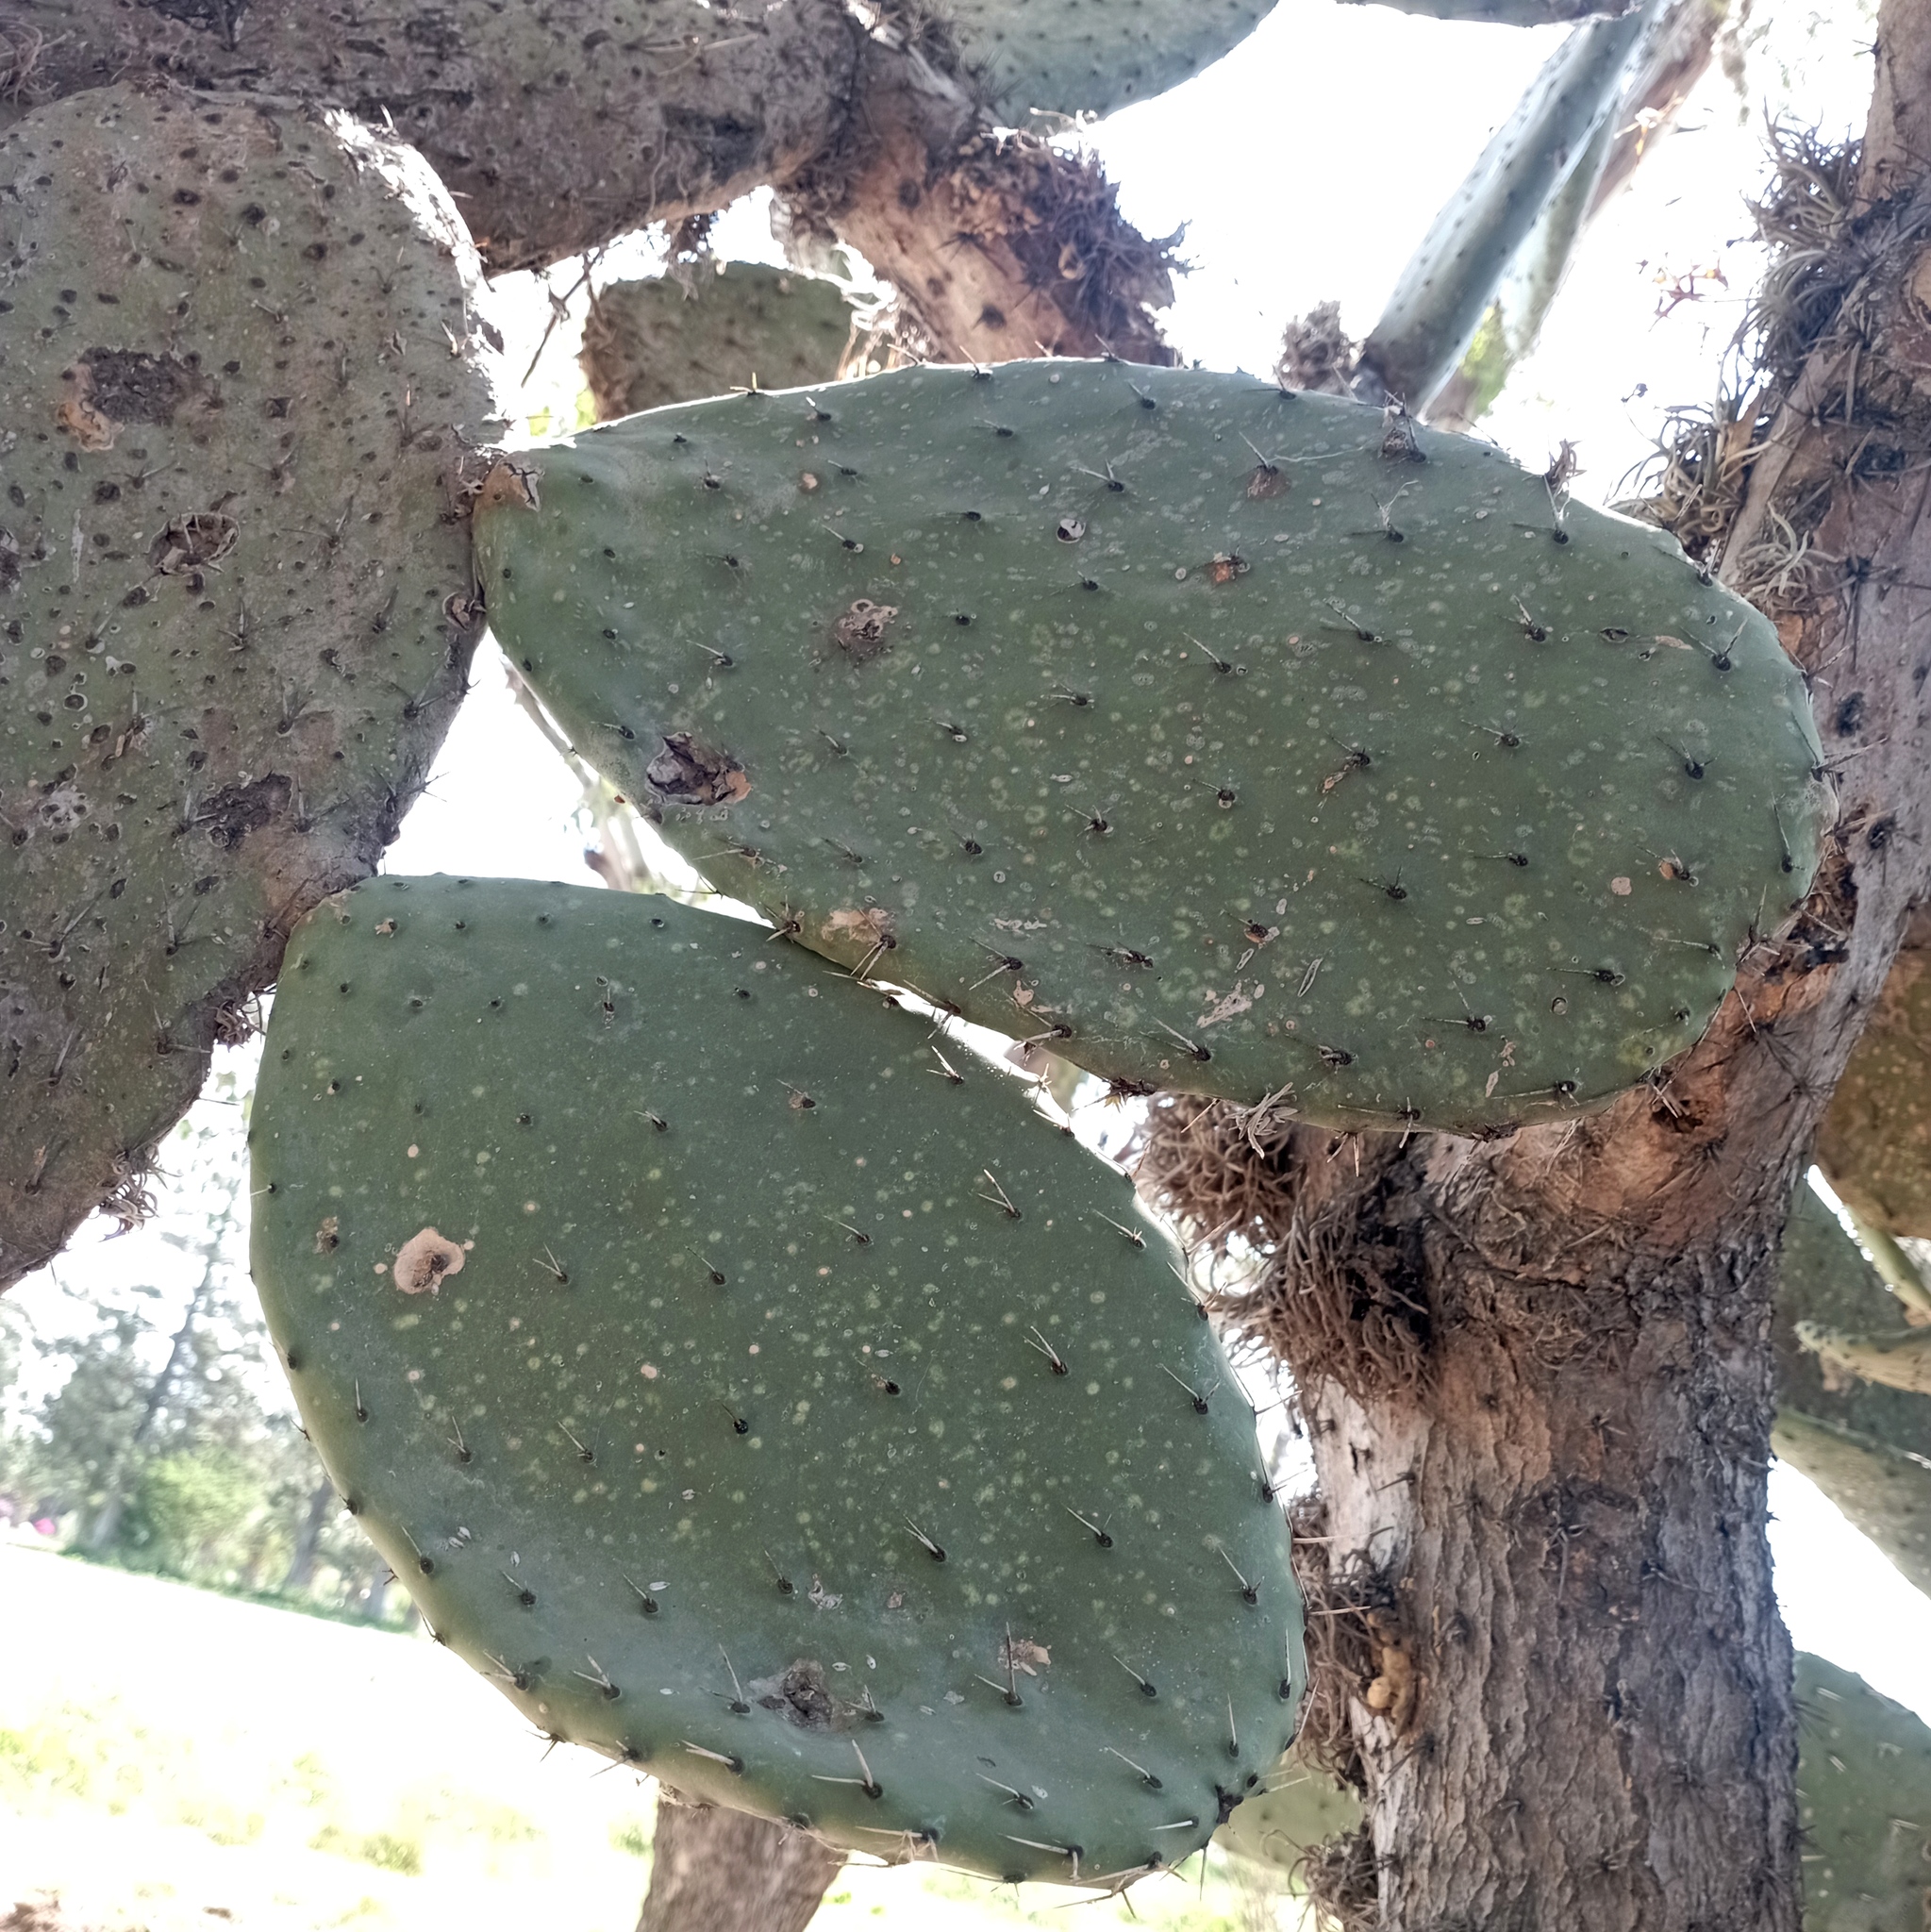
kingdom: Plantae
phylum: Tracheophyta
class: Magnoliopsida
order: Caryophyllales
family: Cactaceae
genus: Opuntia
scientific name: Opuntia lasiacantha
